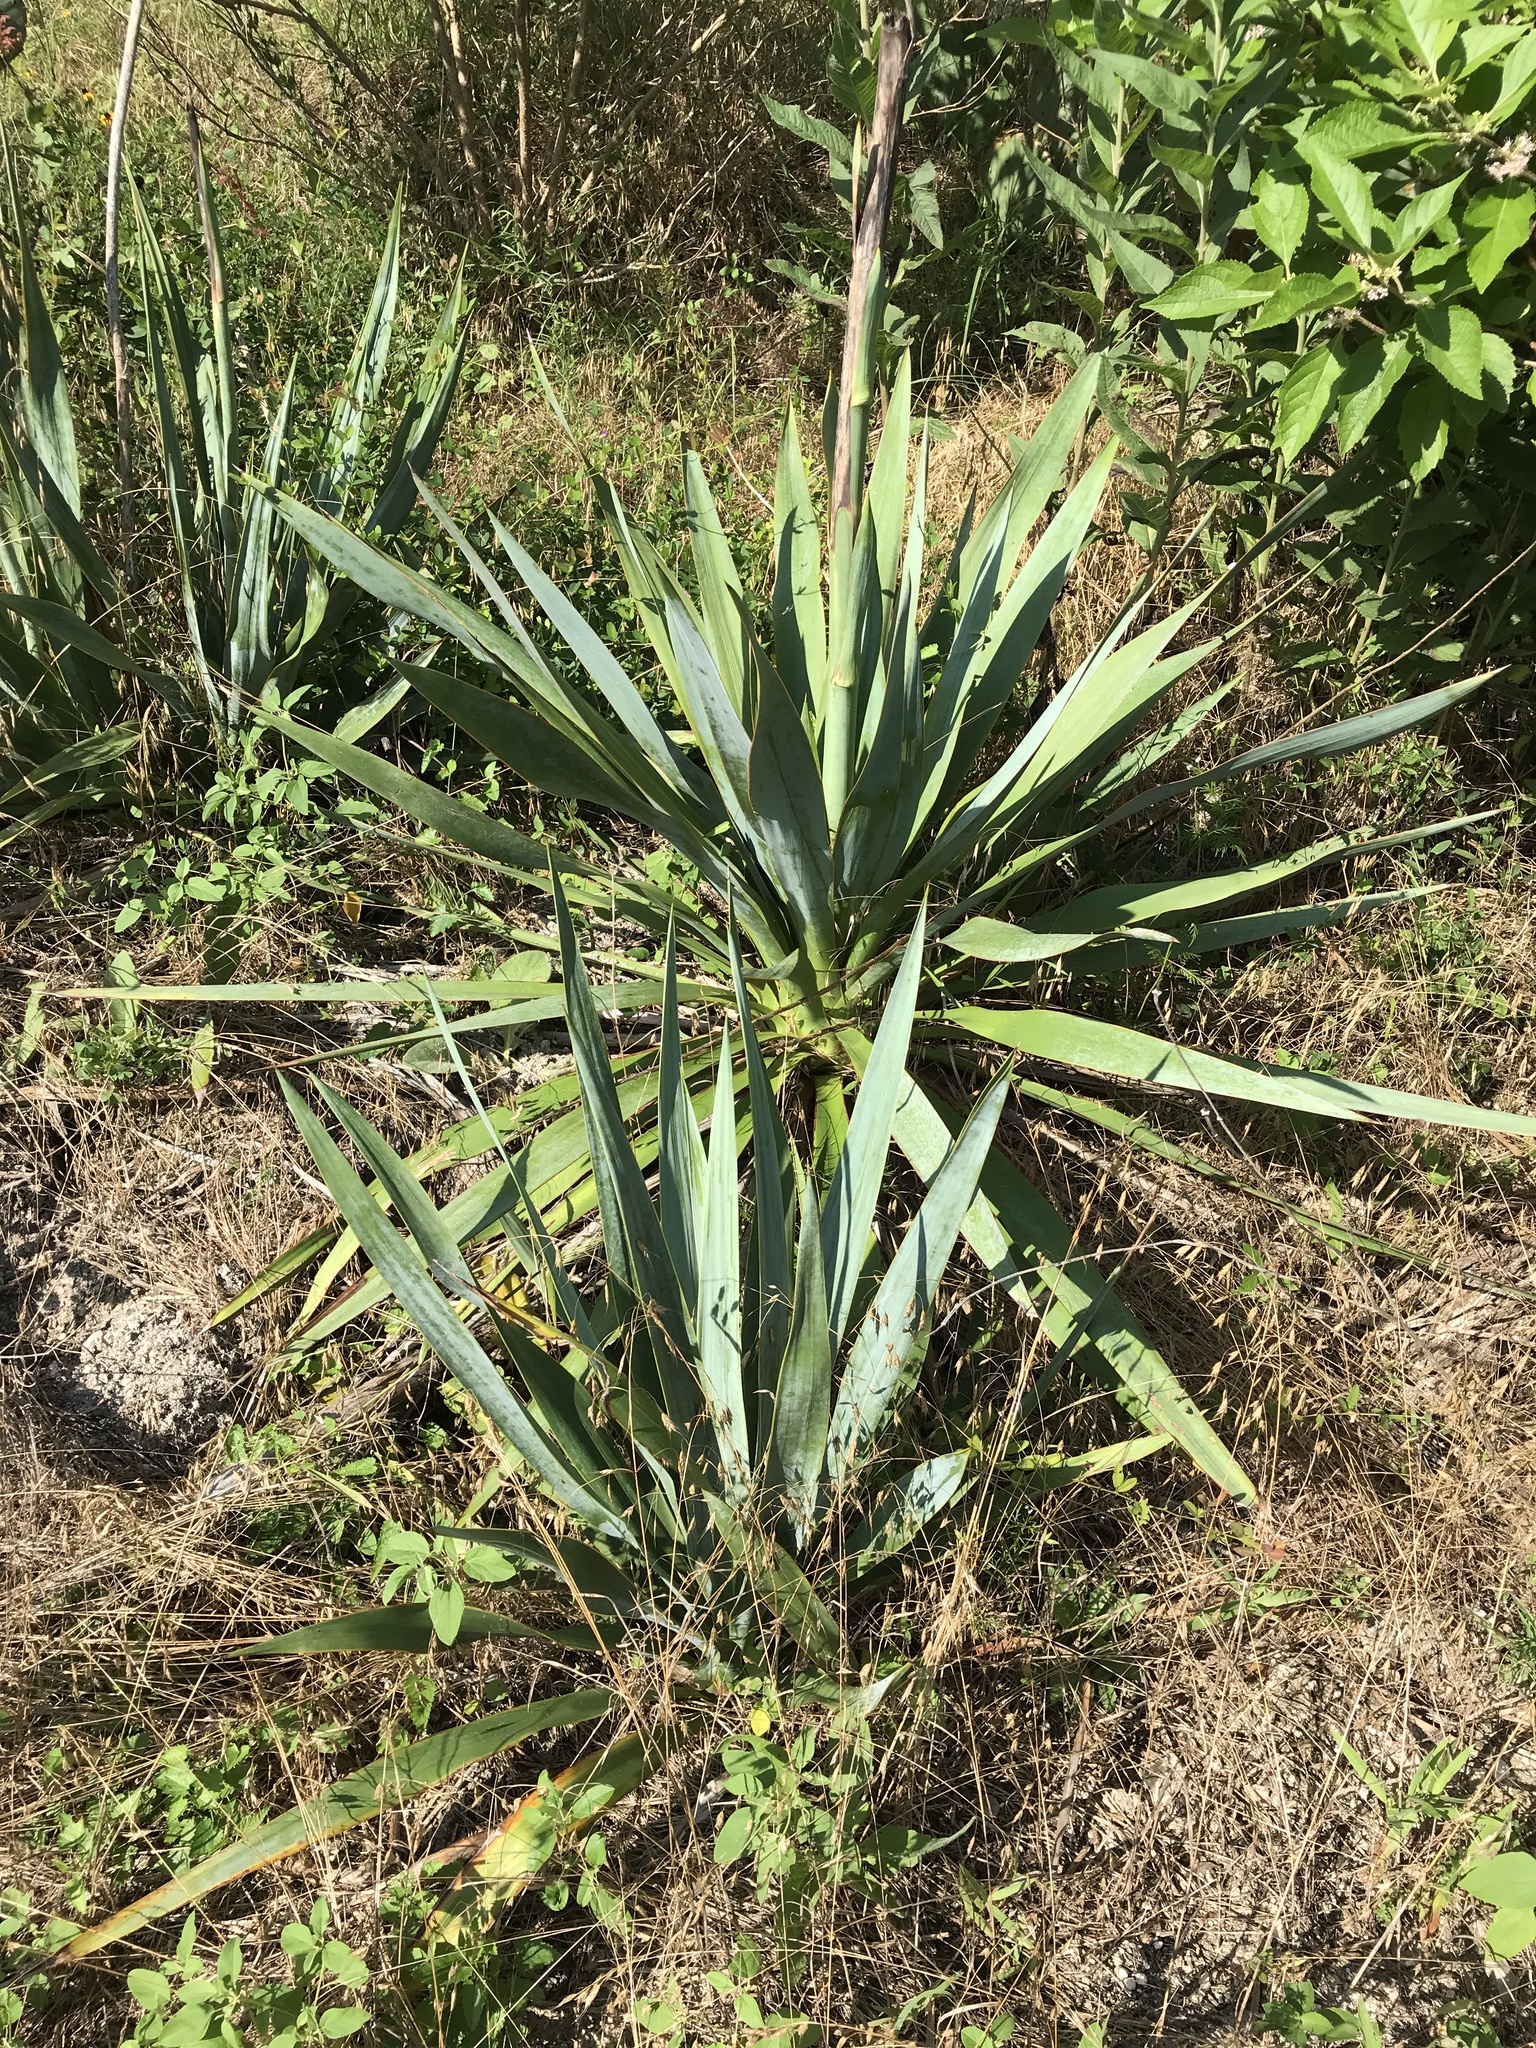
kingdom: Plantae
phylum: Tracheophyta
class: Liliopsida
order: Asparagales
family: Asparagaceae
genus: Yucca
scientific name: Yucca pallida
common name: Pale leaf yucca
